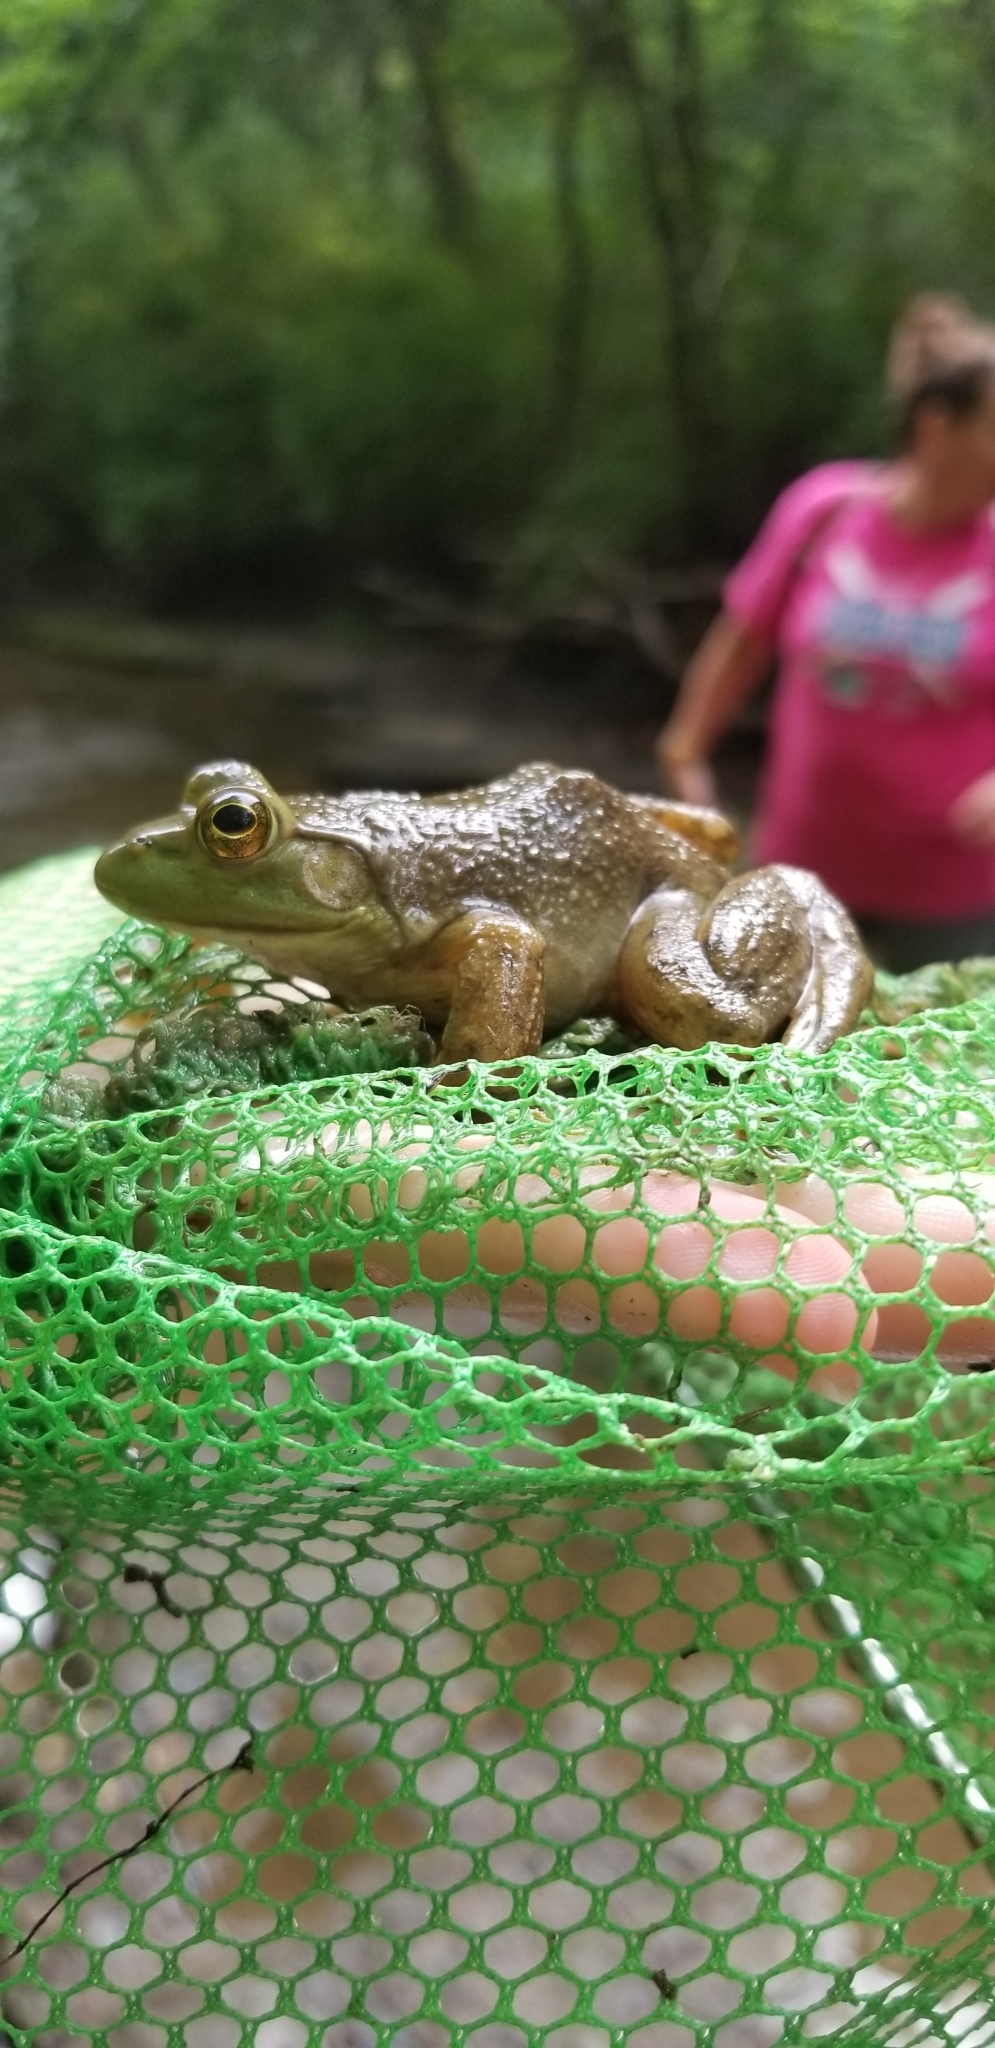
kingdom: Animalia
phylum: Chordata
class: Amphibia
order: Anura
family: Ranidae
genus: Lithobates
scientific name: Lithobates catesbeianus
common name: American bullfrog
